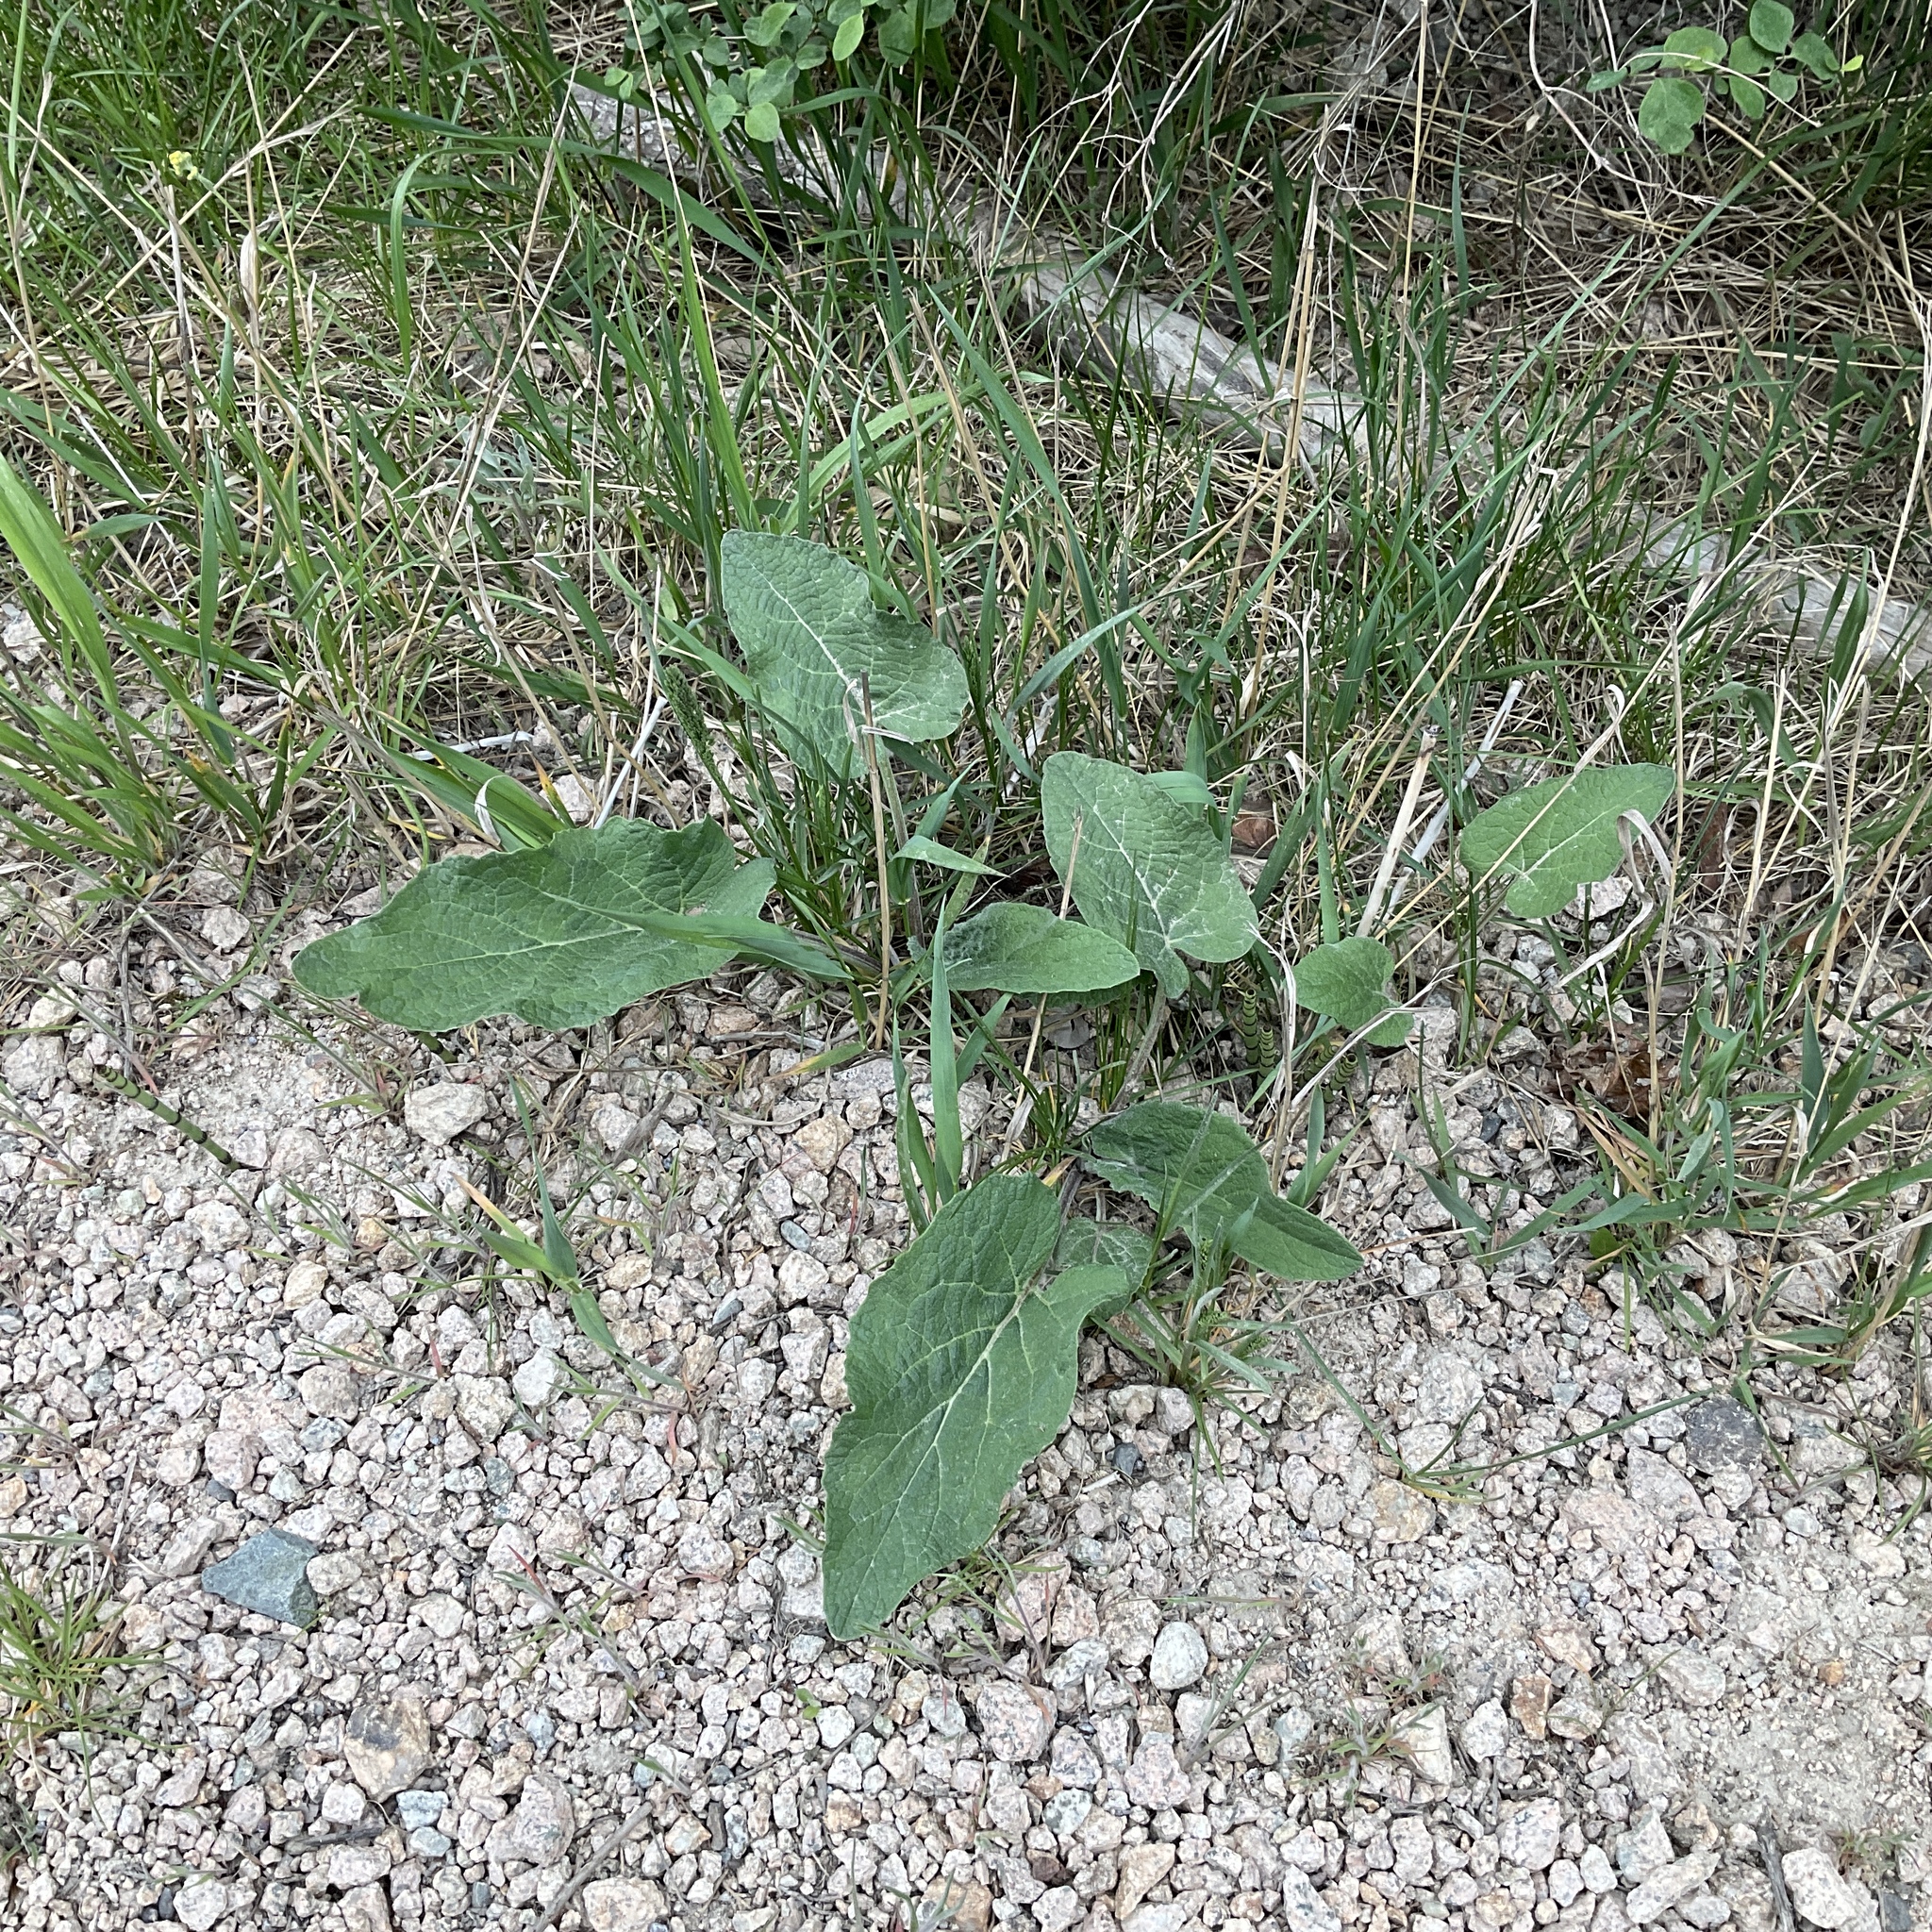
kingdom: Plantae
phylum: Tracheophyta
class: Magnoliopsida
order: Asterales
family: Asteraceae
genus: Arctium
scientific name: Arctium minus
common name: Lesser burdock
